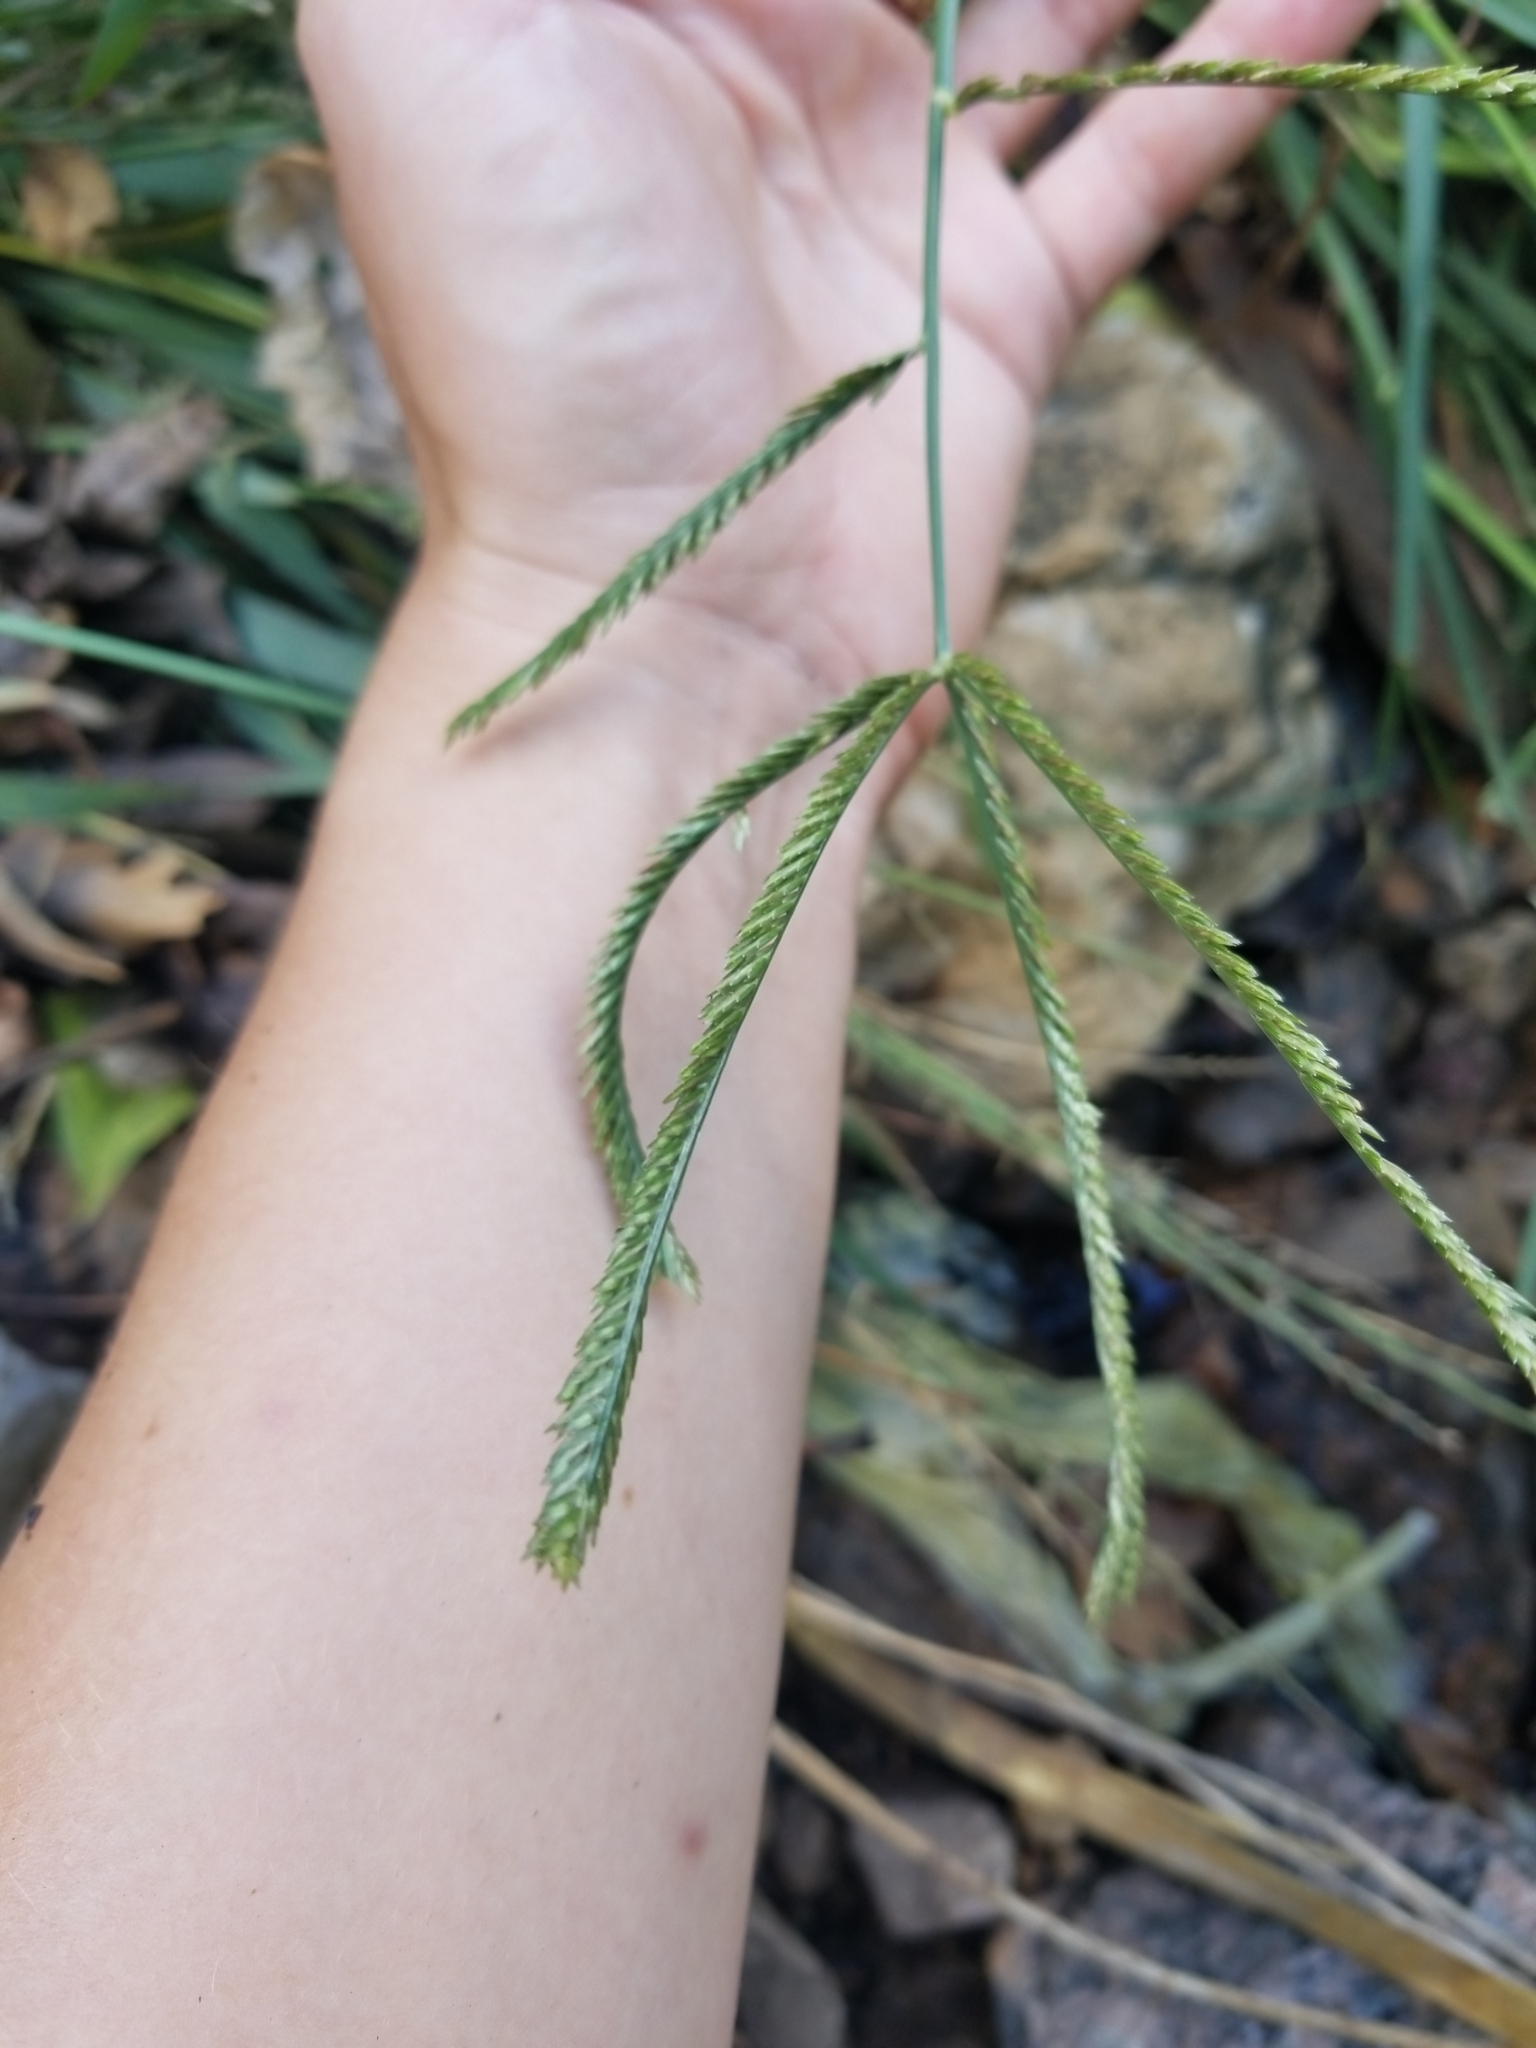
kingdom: Plantae
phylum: Tracheophyta
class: Liliopsida
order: Poales
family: Poaceae
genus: Eleusine
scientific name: Eleusine indica
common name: Yard-grass
